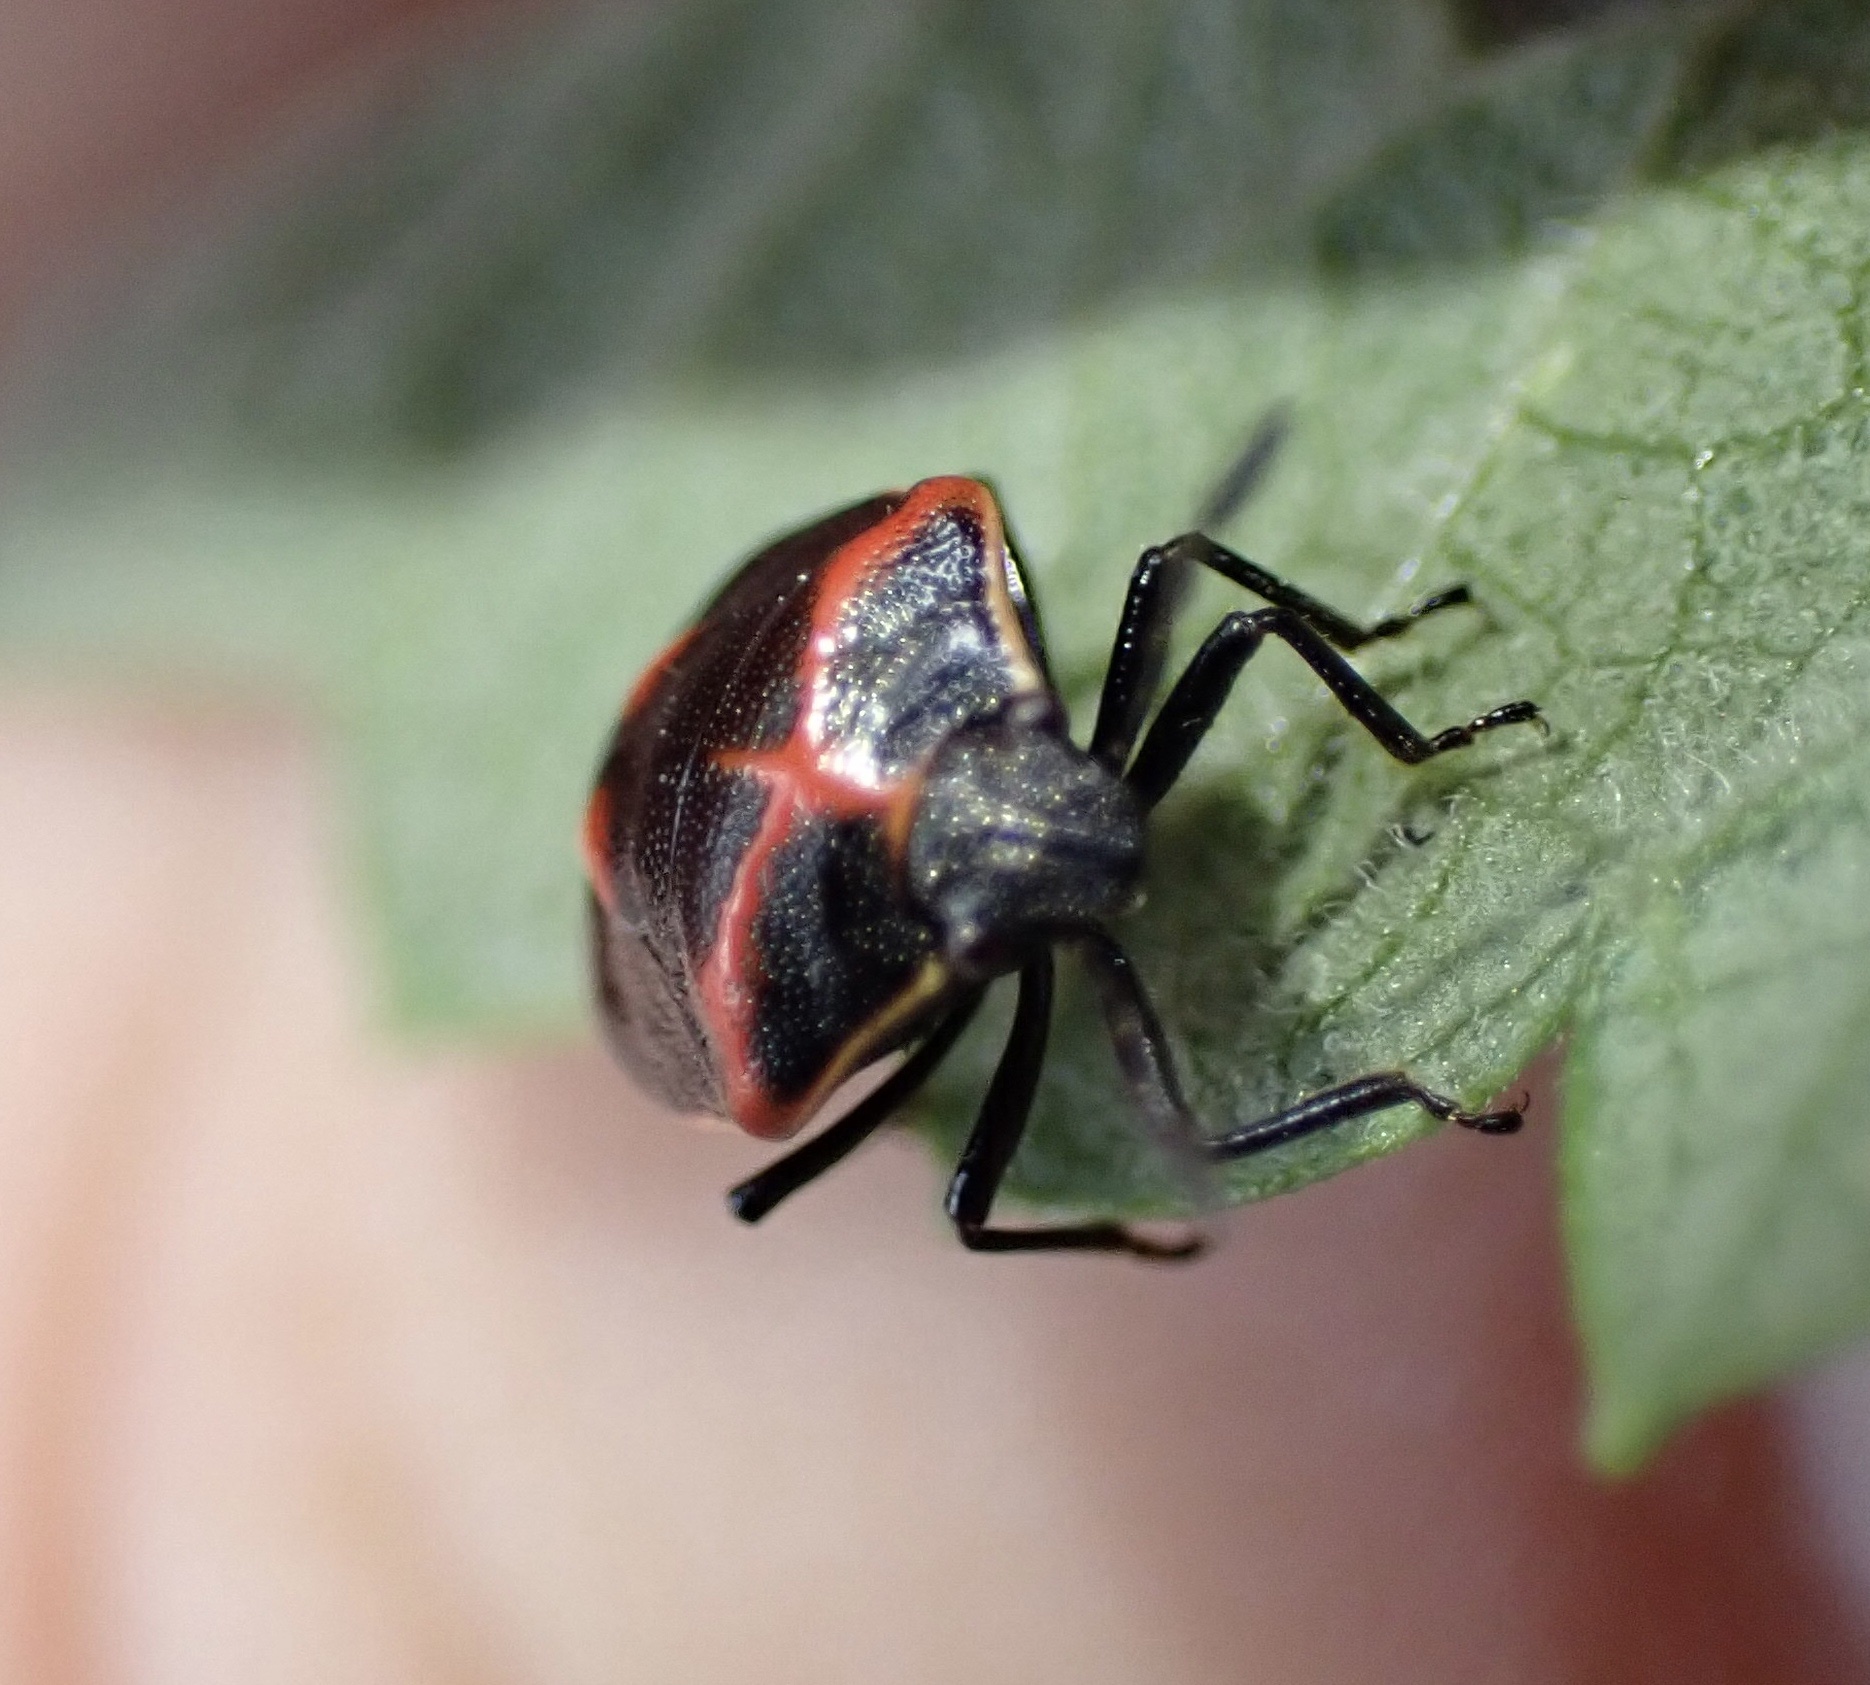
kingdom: Animalia
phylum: Arthropoda
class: Insecta
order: Hemiptera
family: Pentatomidae
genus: Cosmopepla
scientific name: Cosmopepla lintneriana
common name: Twice-stabbed stink bug
